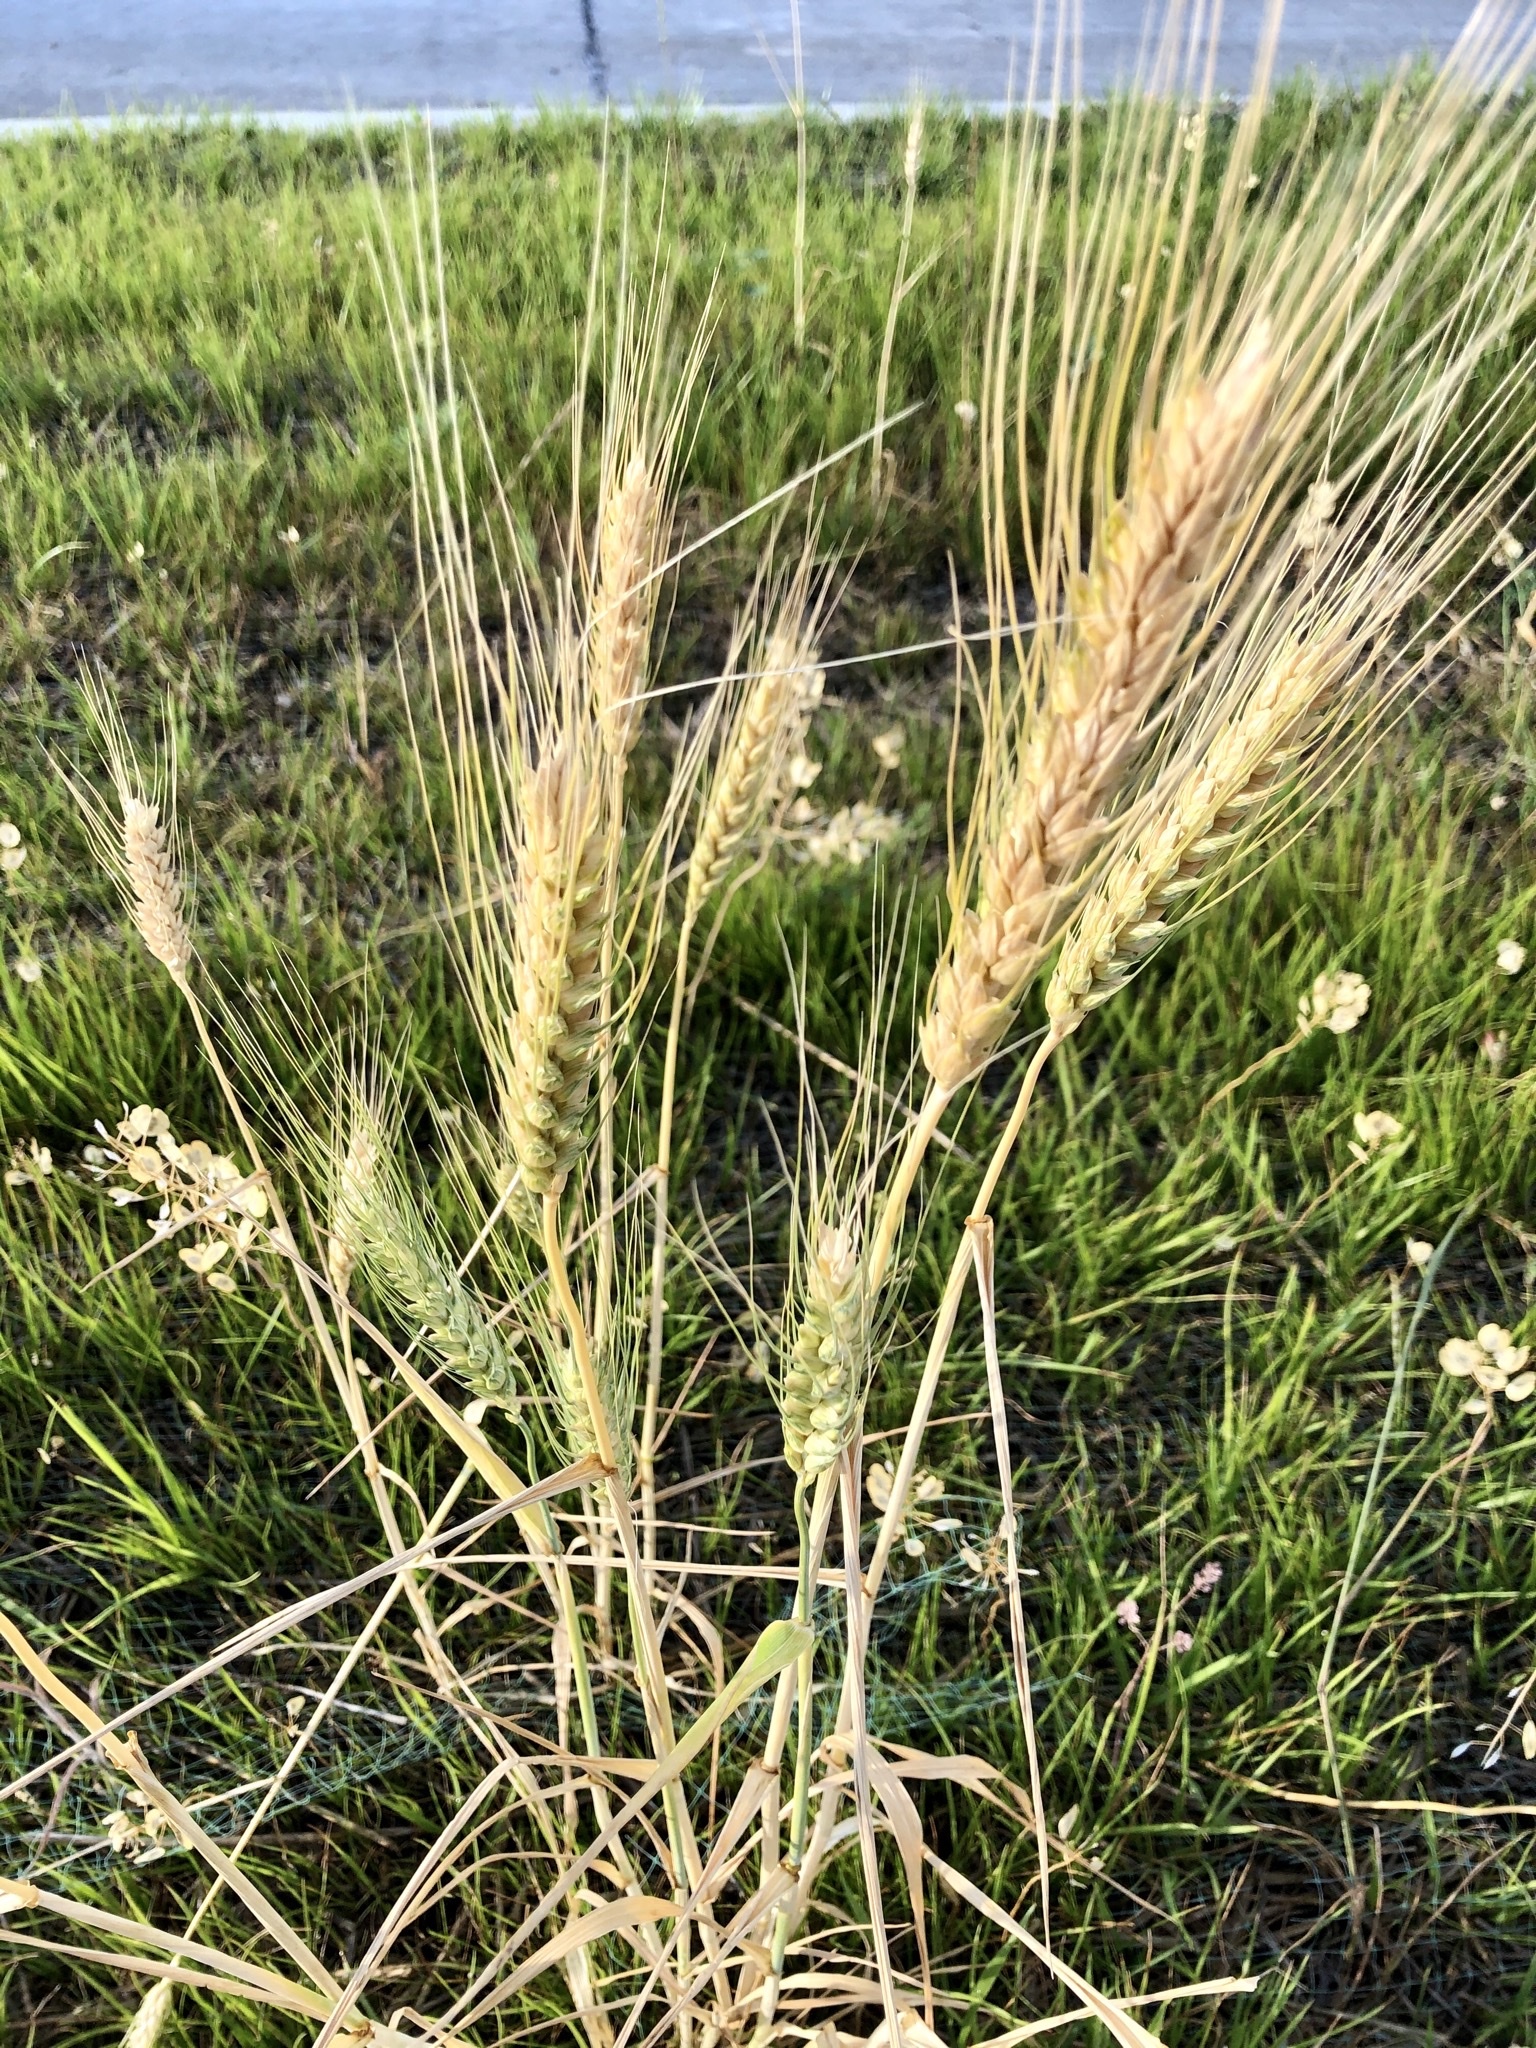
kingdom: Plantae
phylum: Tracheophyta
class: Liliopsida
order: Poales
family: Poaceae
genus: Triticum
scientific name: Triticum aestivum
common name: Common wheat
